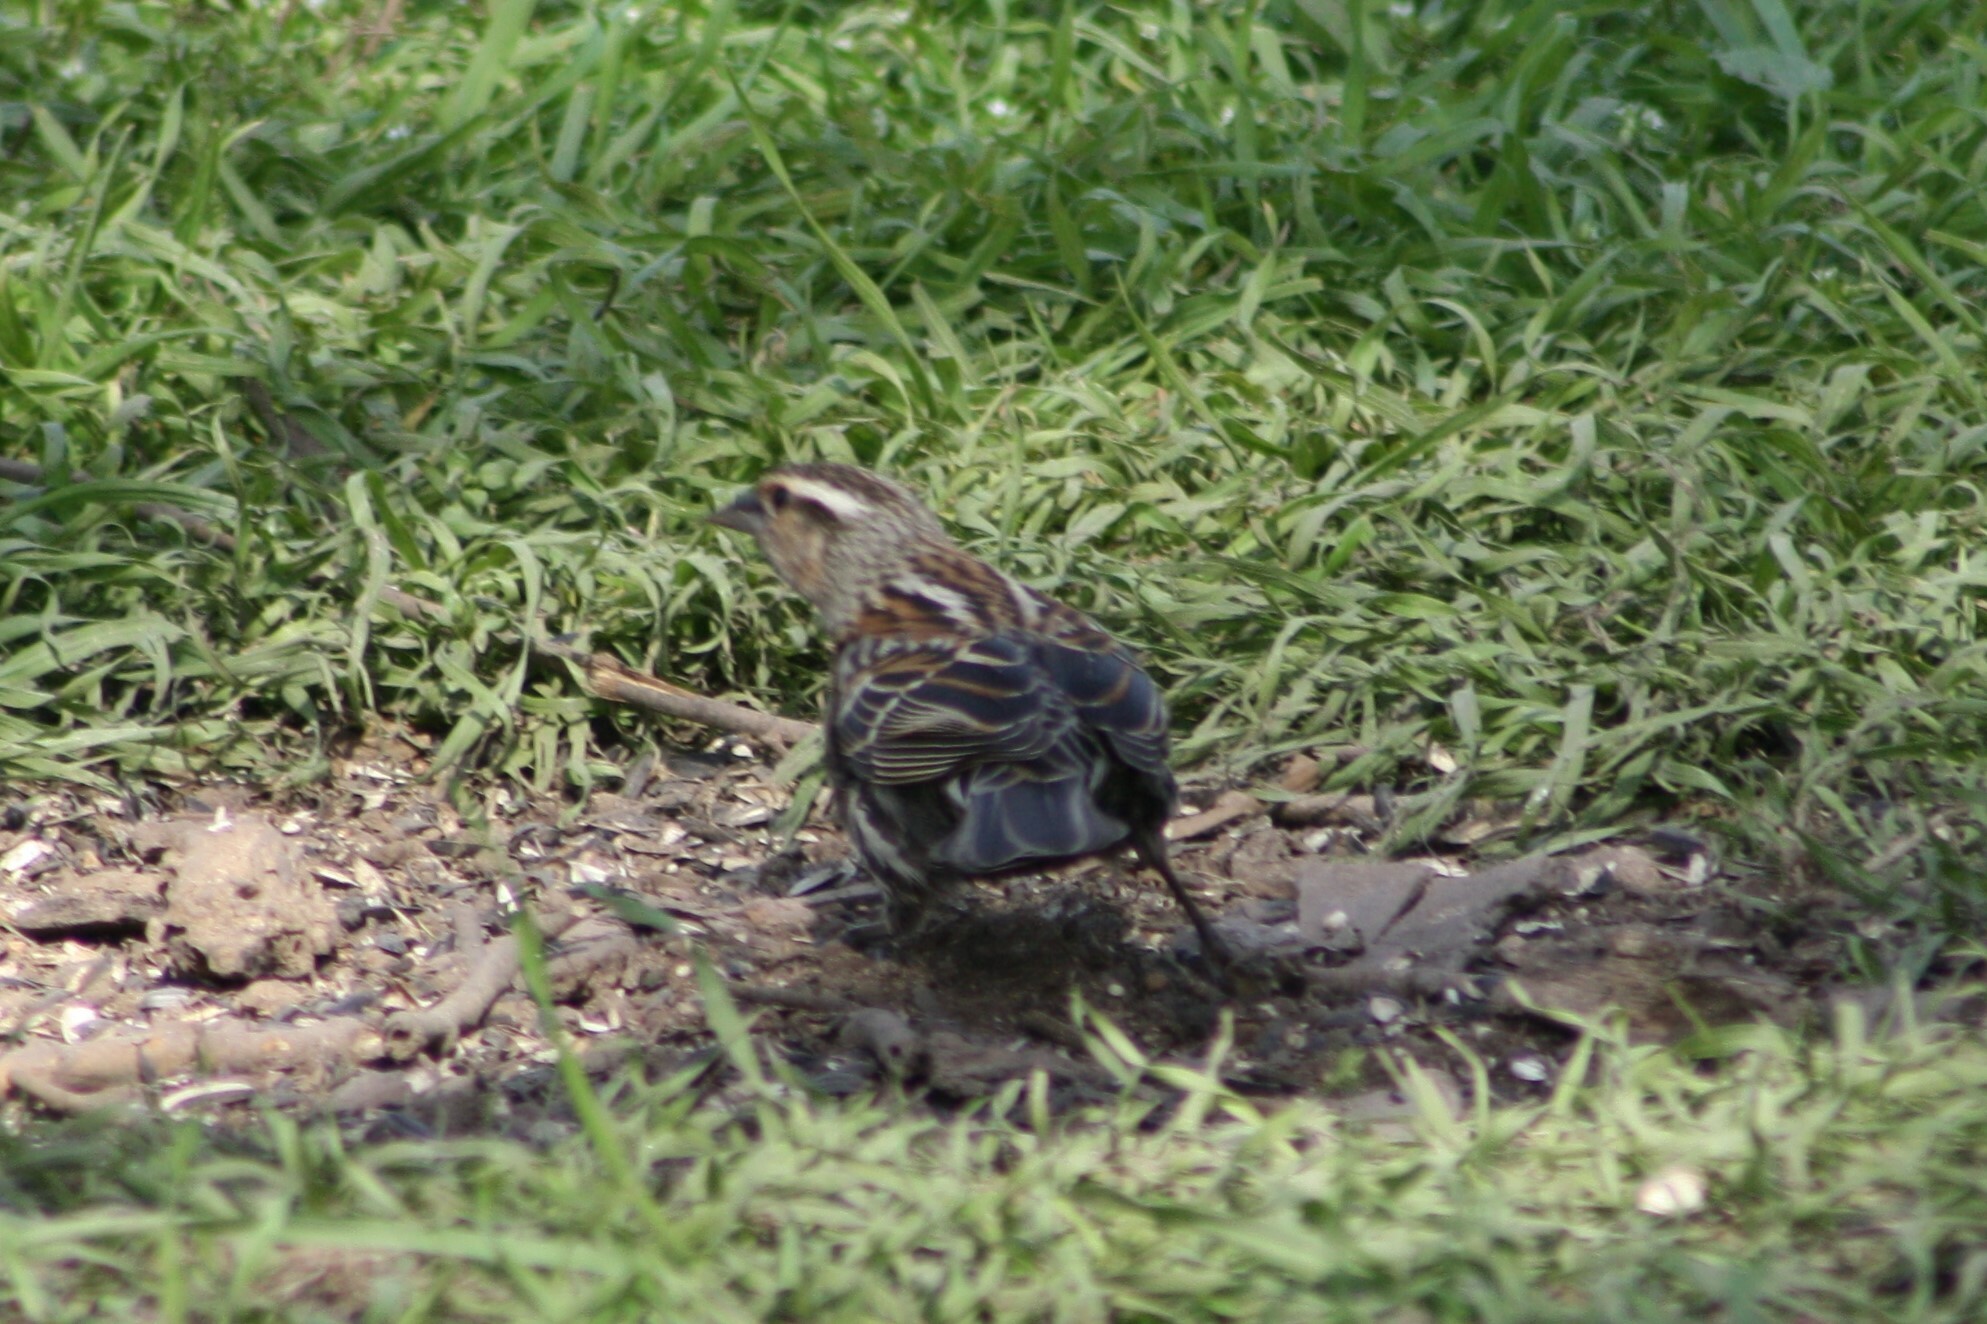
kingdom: Animalia
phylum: Chordata
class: Aves
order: Passeriformes
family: Icteridae
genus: Agelaius
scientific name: Agelaius phoeniceus
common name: Red-winged blackbird
